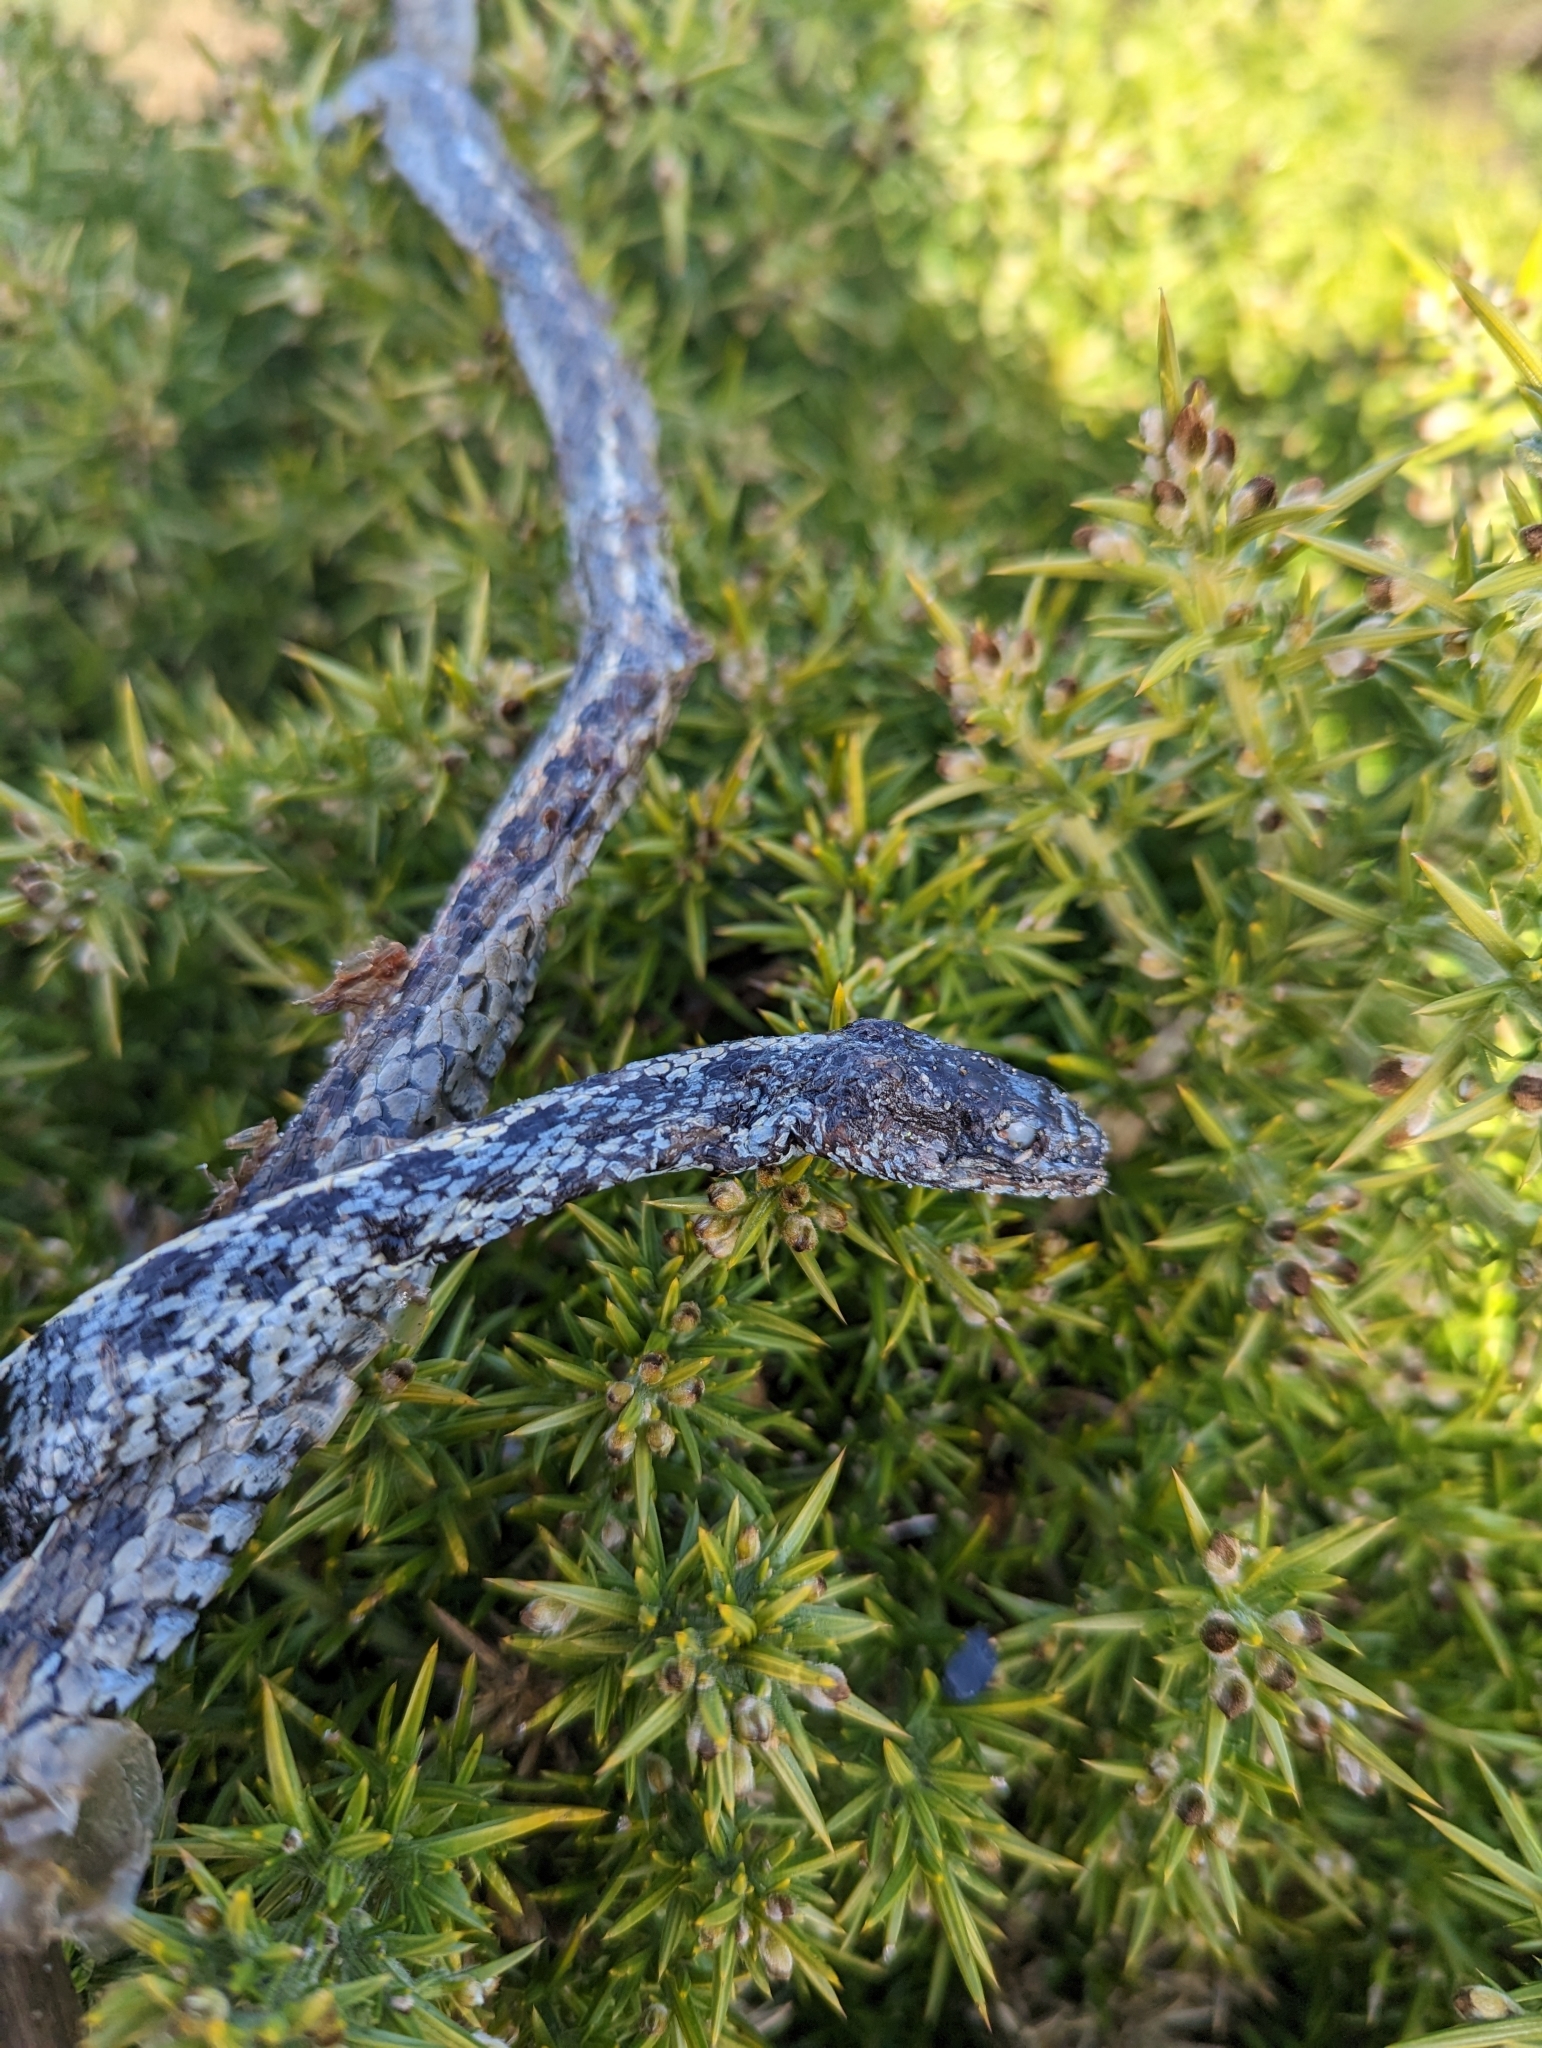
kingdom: Animalia
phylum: Chordata
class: Squamata
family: Colubridae
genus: Thamnophis
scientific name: Thamnophis elegans
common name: Western terrestrial garter snake
